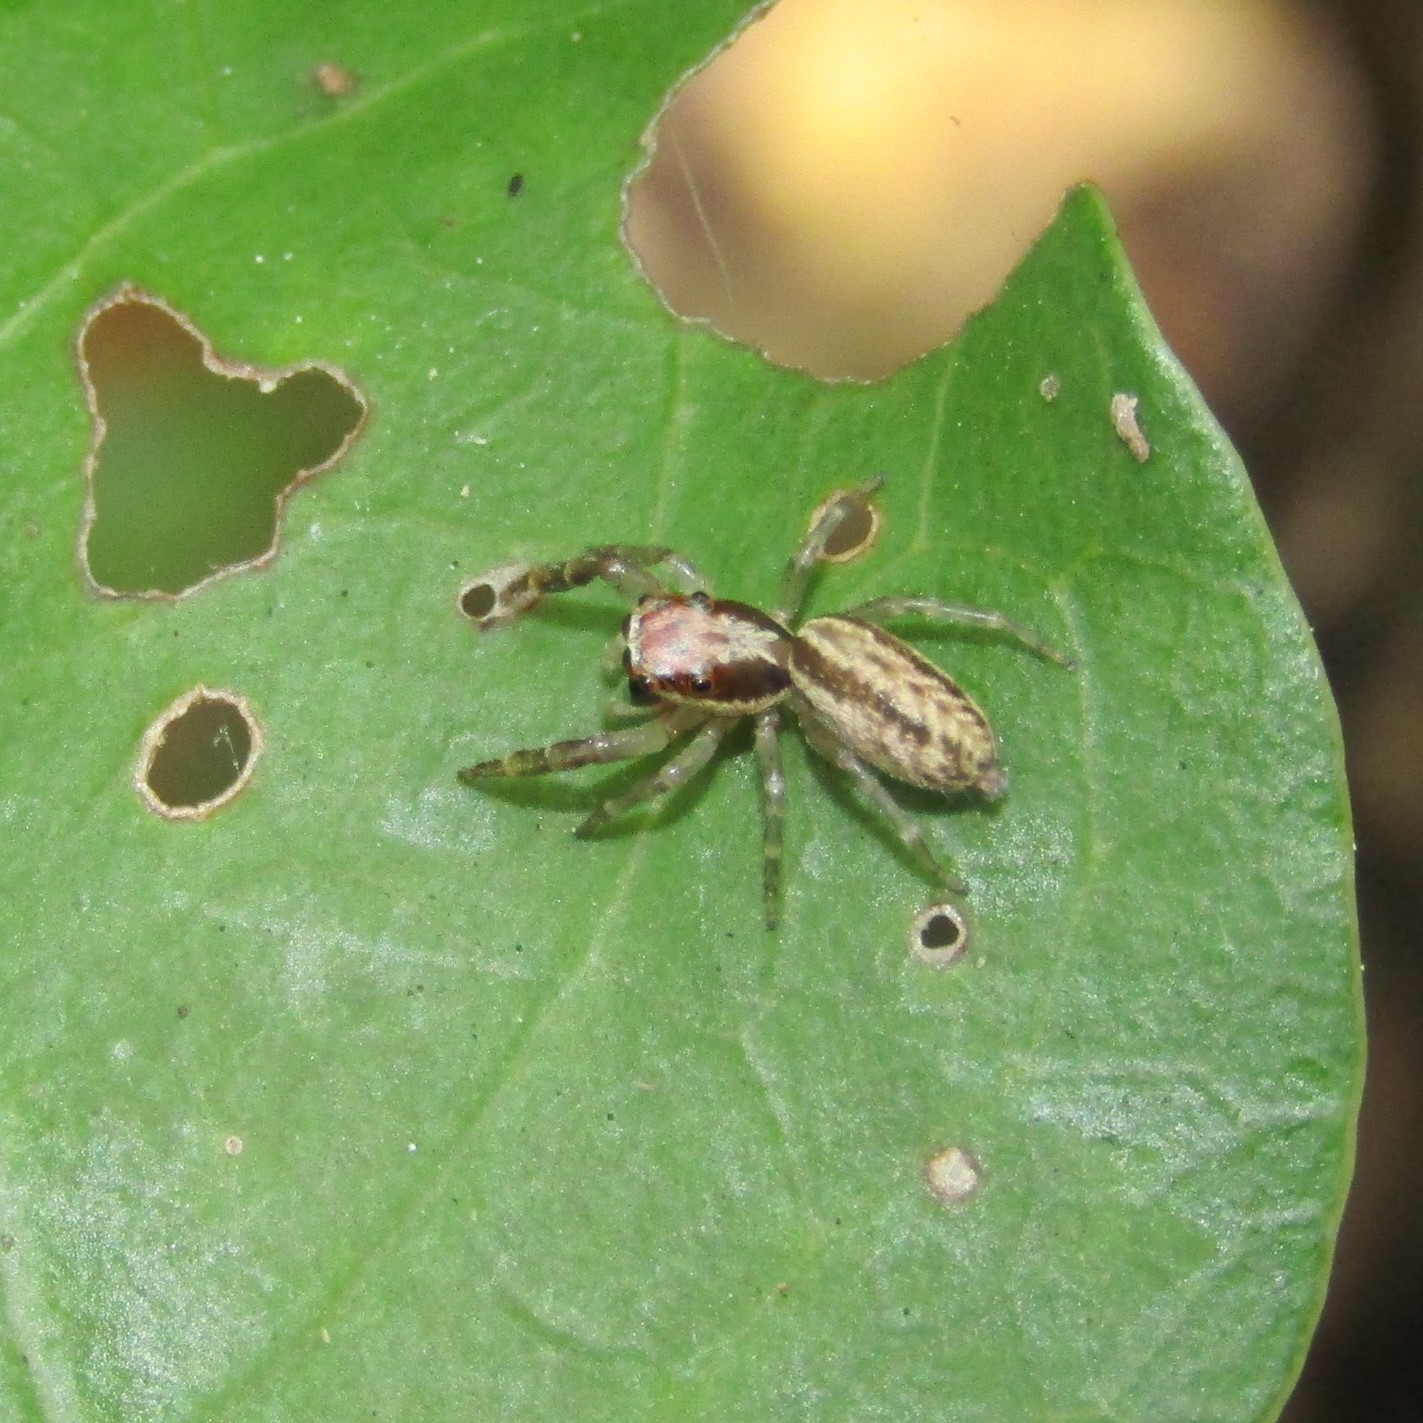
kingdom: Animalia
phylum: Arthropoda
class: Arachnida
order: Araneae
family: Salticidae
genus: Trite
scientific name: Trite mustilina
